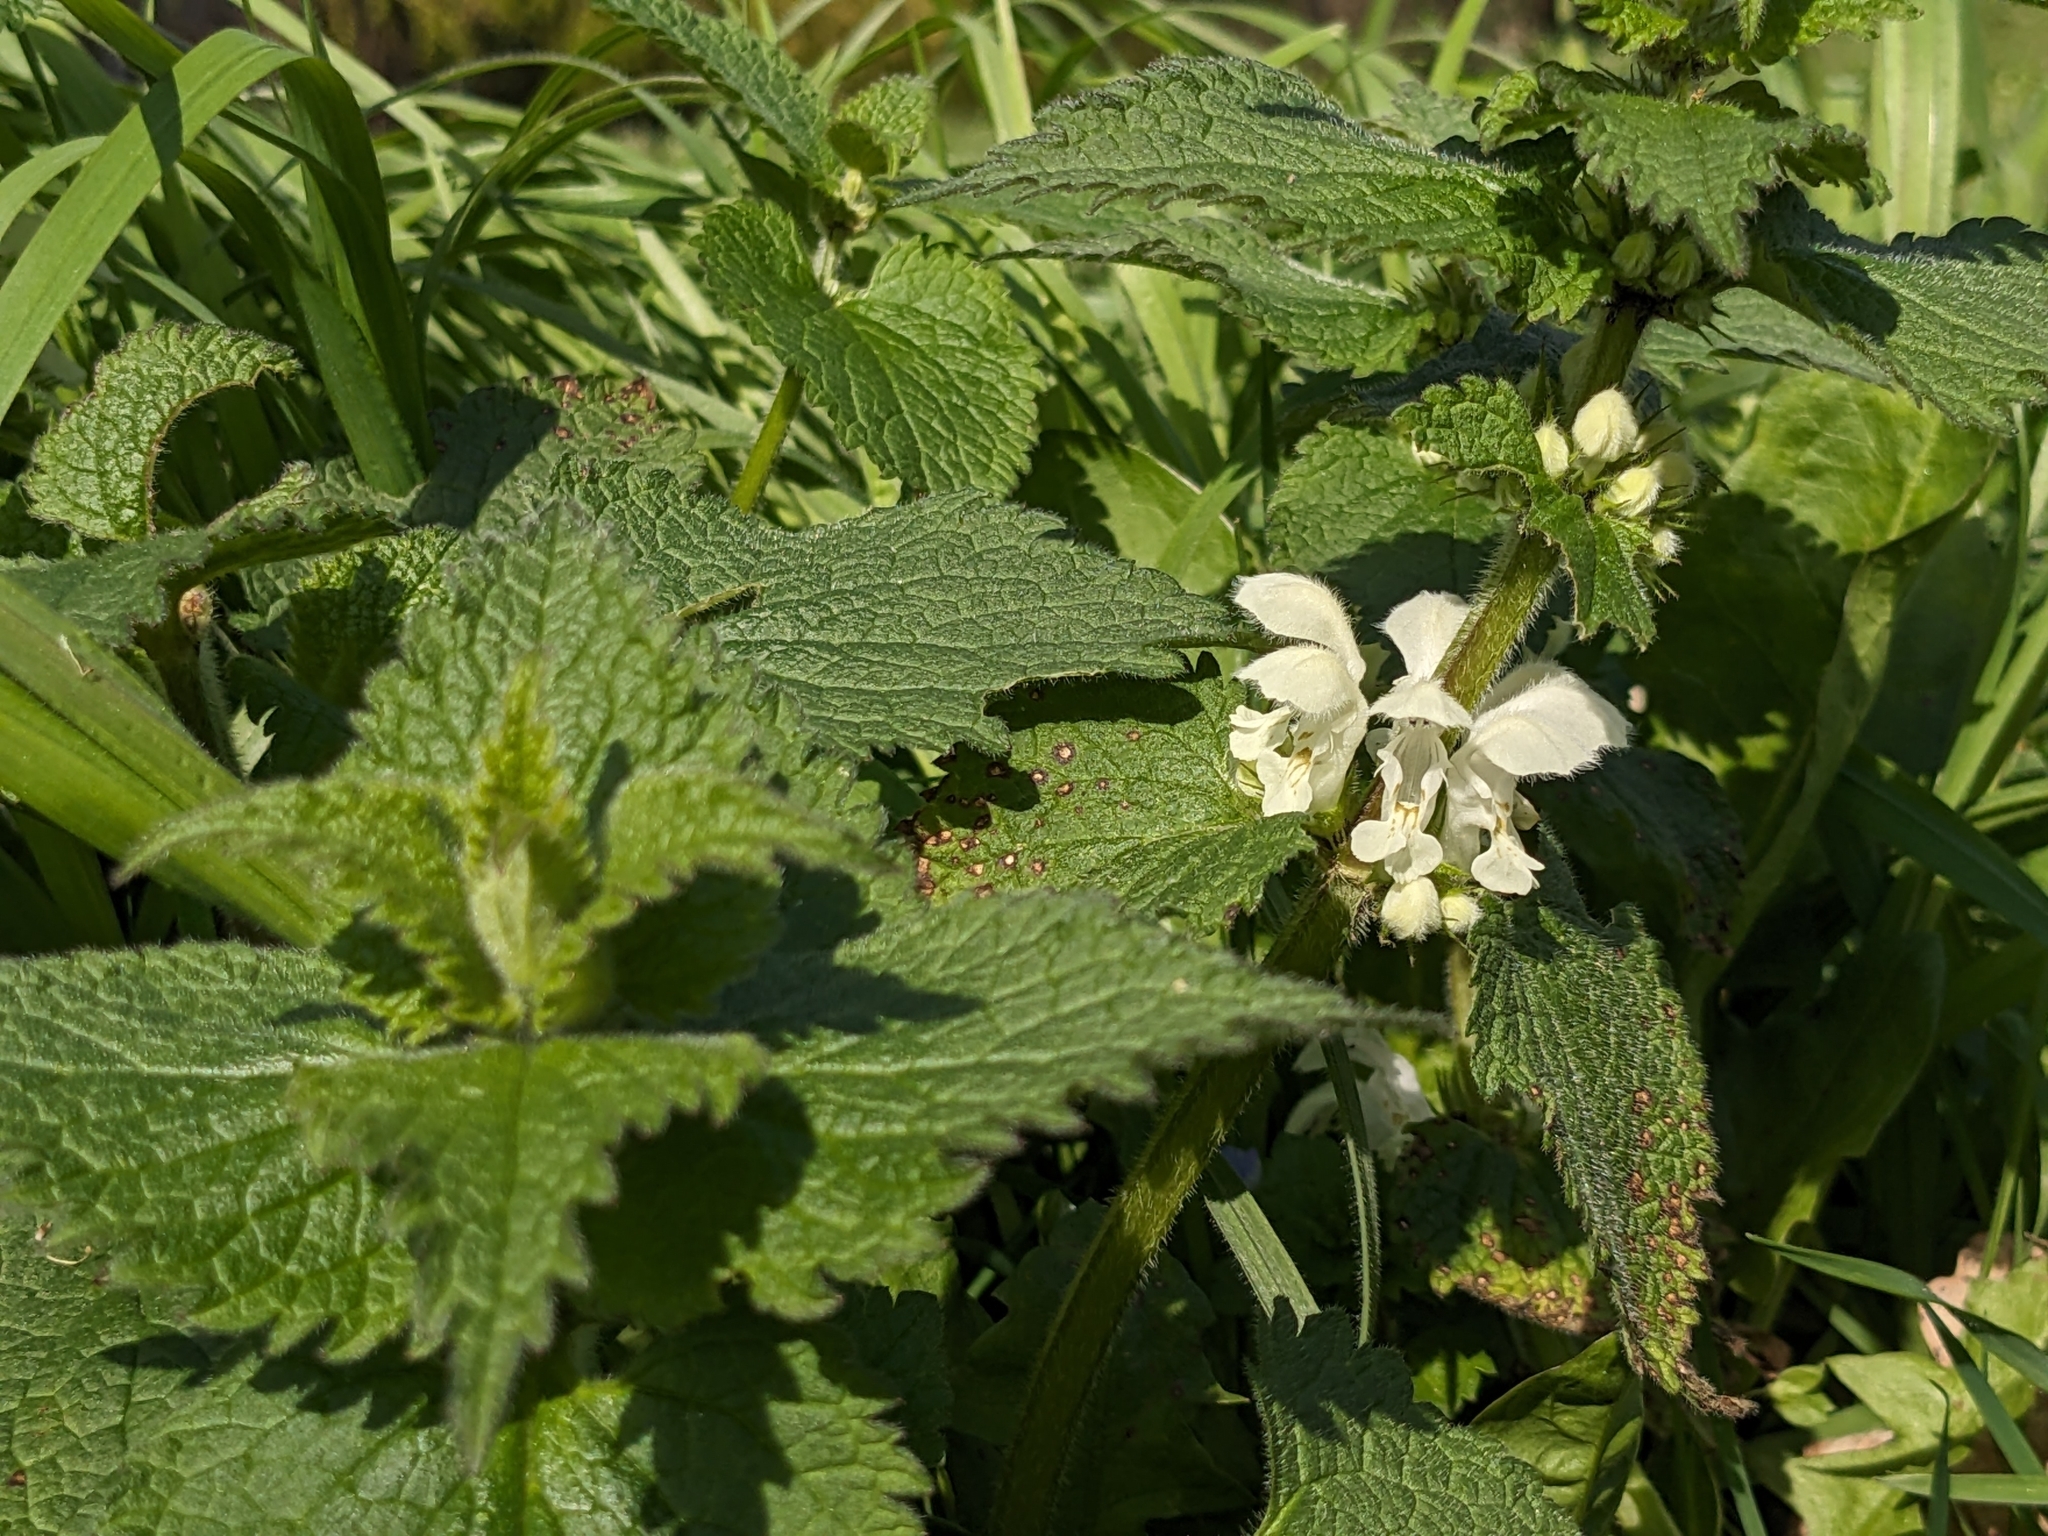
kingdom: Plantae
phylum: Tracheophyta
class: Magnoliopsida
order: Lamiales
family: Lamiaceae
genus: Lamium
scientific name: Lamium album
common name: White dead-nettle
